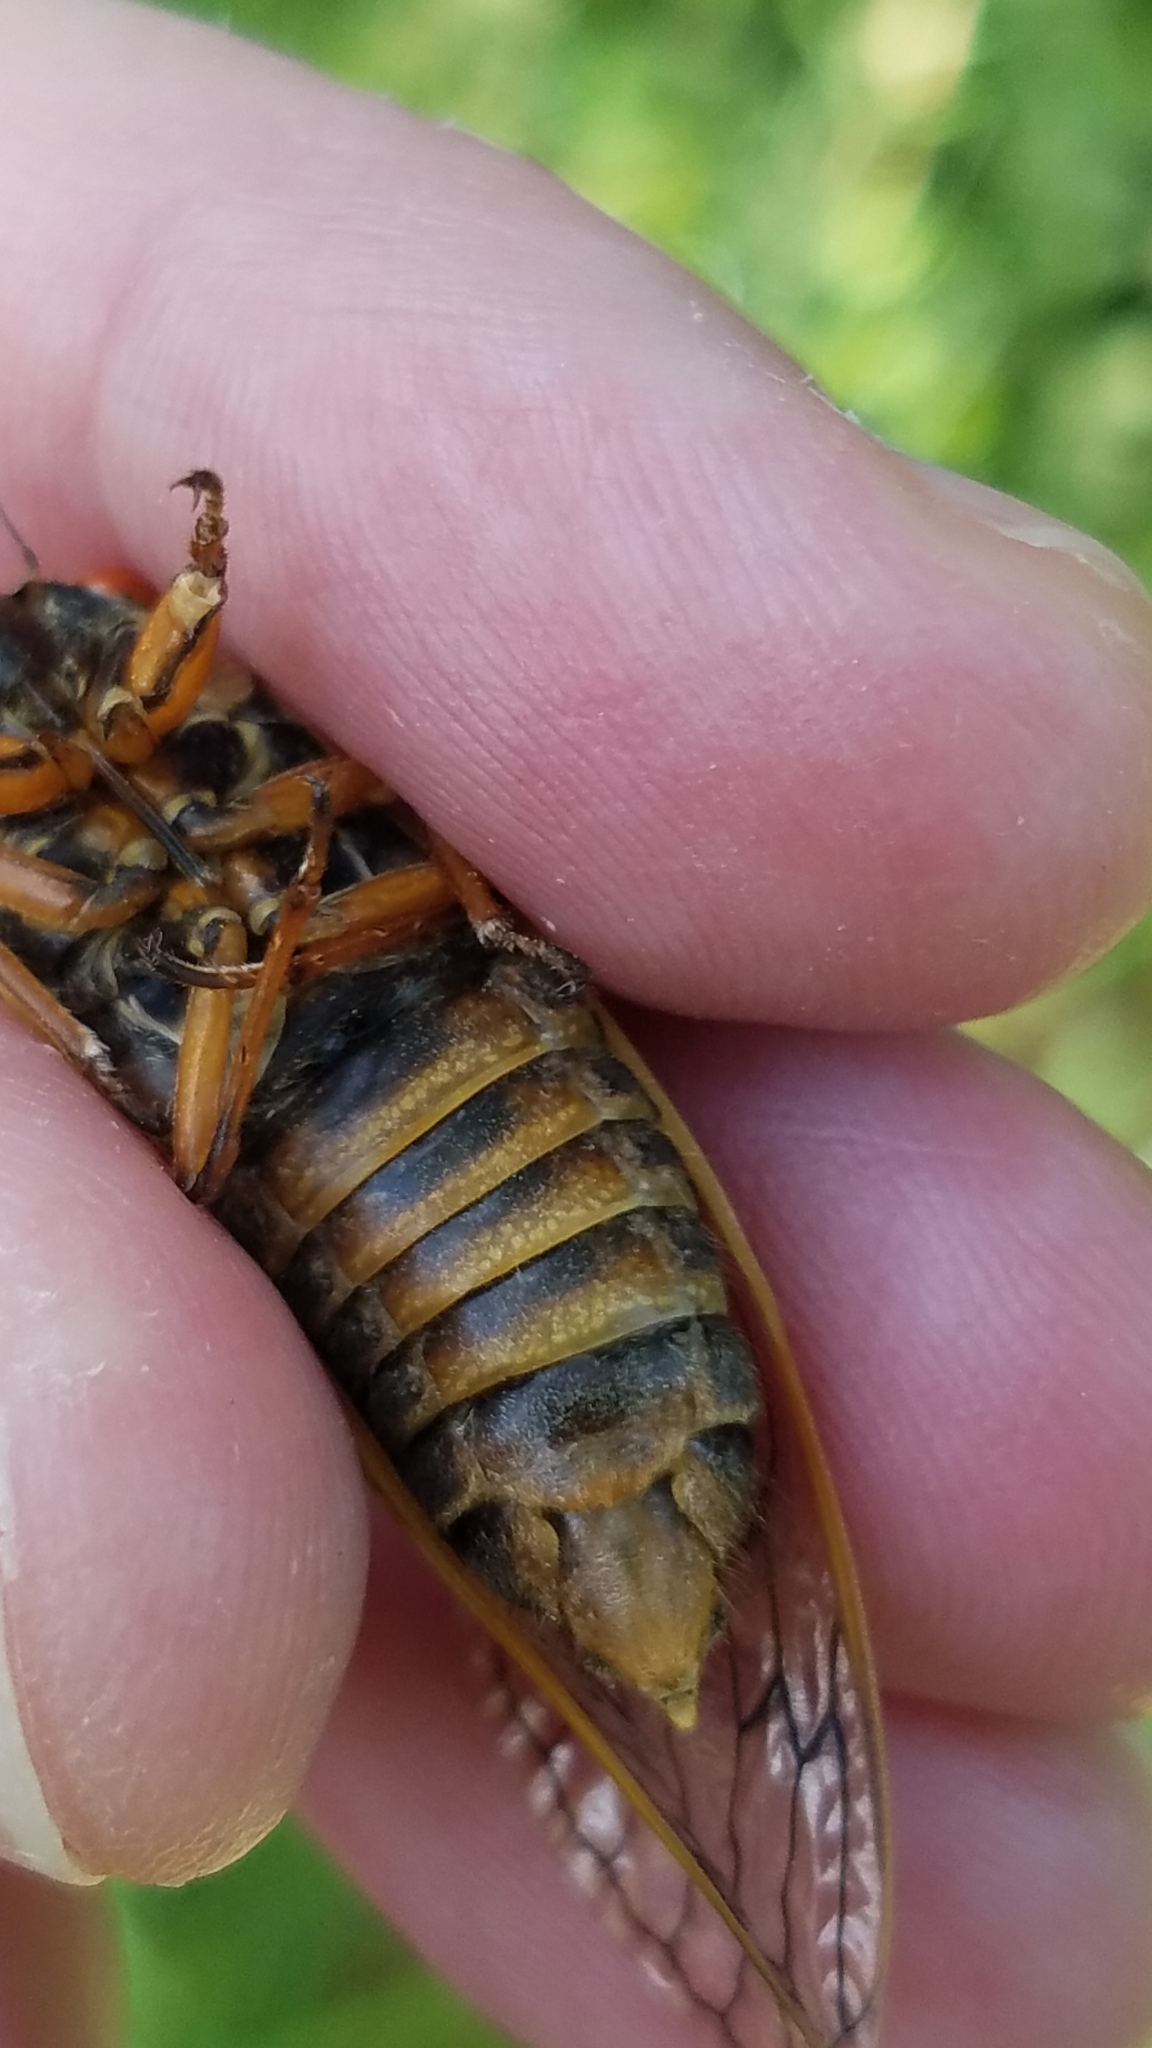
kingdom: Animalia
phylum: Arthropoda
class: Insecta
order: Hemiptera
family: Cicadidae
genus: Magicicada
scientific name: Magicicada septendecim
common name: Periodical cicada
